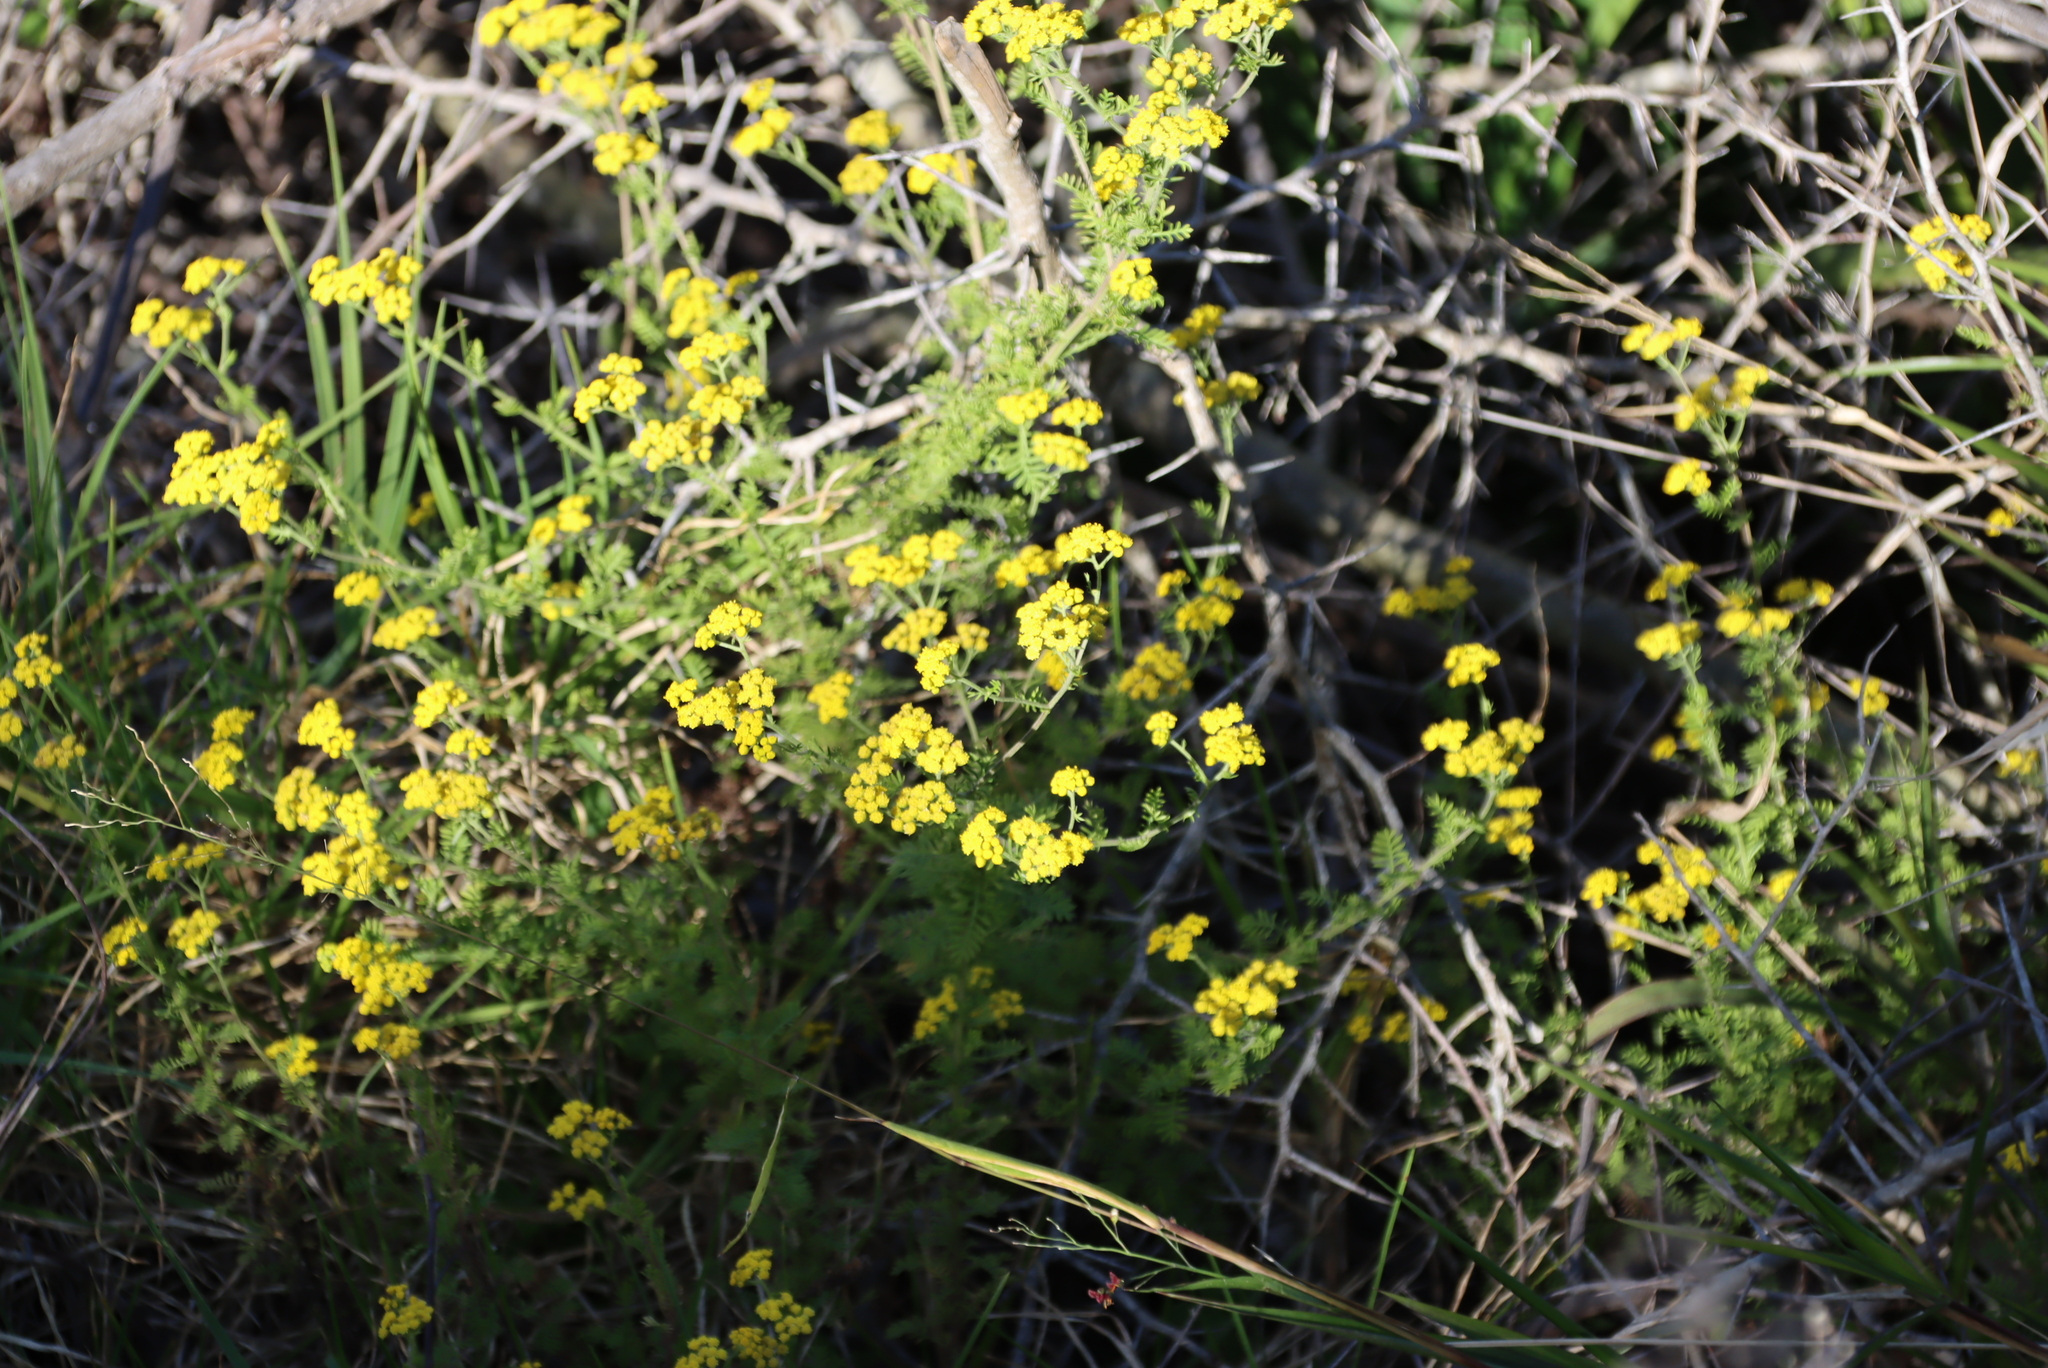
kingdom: Plantae
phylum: Tracheophyta
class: Magnoliopsida
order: Asterales
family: Asteraceae
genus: Hippia
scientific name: Hippia frutescens
